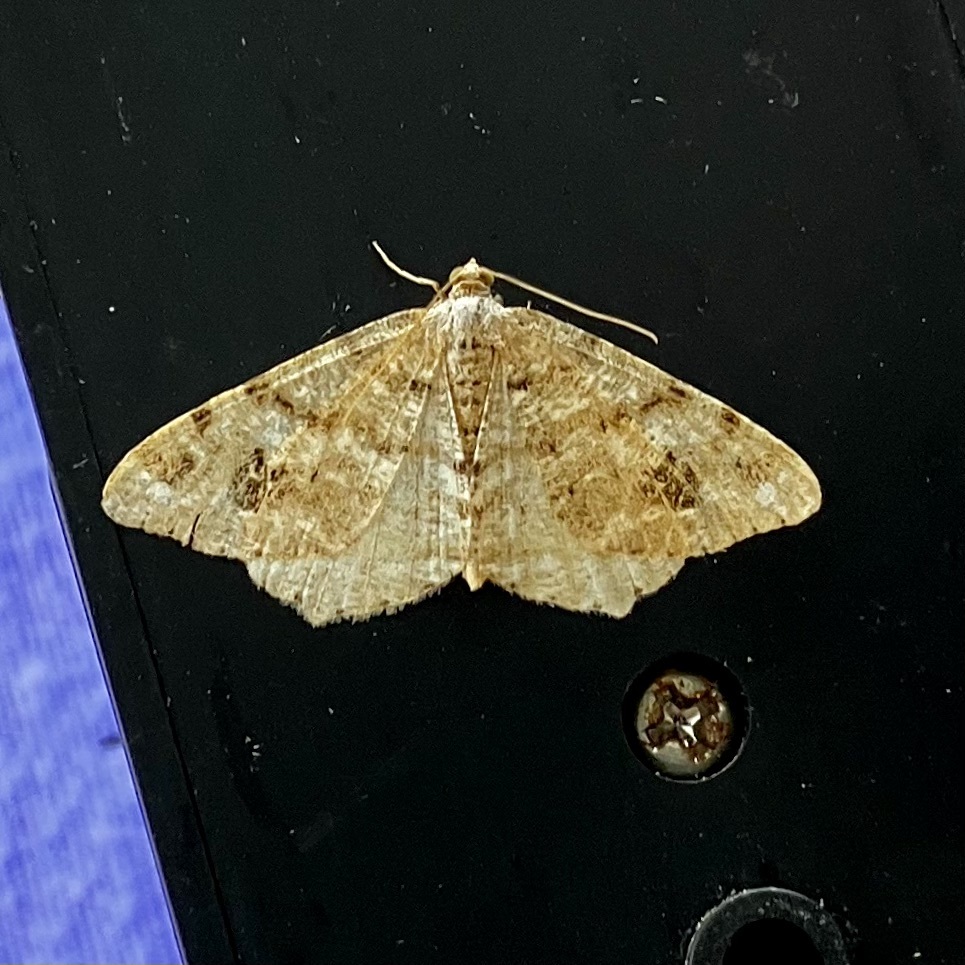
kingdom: Animalia
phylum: Arthropoda
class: Insecta
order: Lepidoptera
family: Geometridae
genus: Macaria
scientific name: Macaria signaria
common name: Dusky peacock
